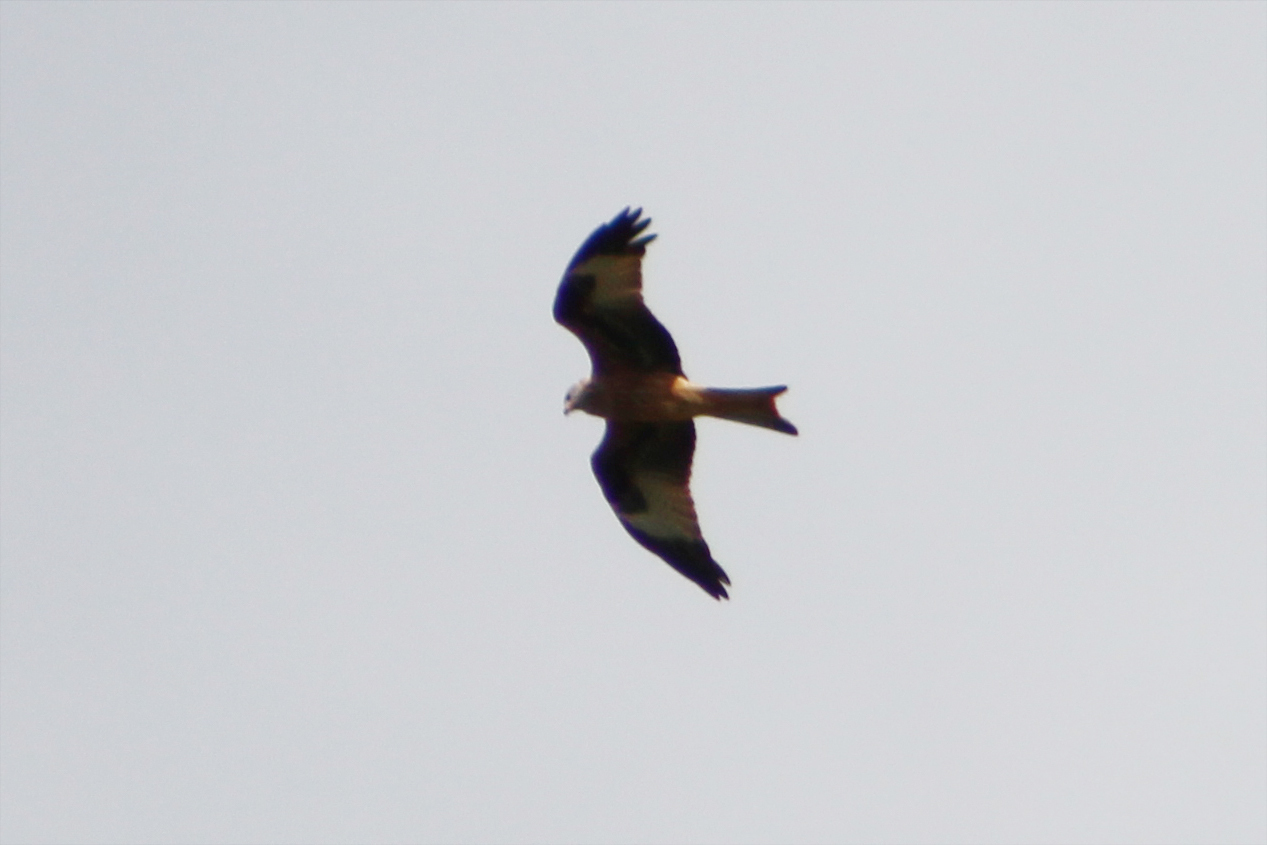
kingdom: Animalia
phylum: Chordata
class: Aves
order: Accipitriformes
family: Accipitridae
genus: Milvus
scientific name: Milvus milvus
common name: Red kite
